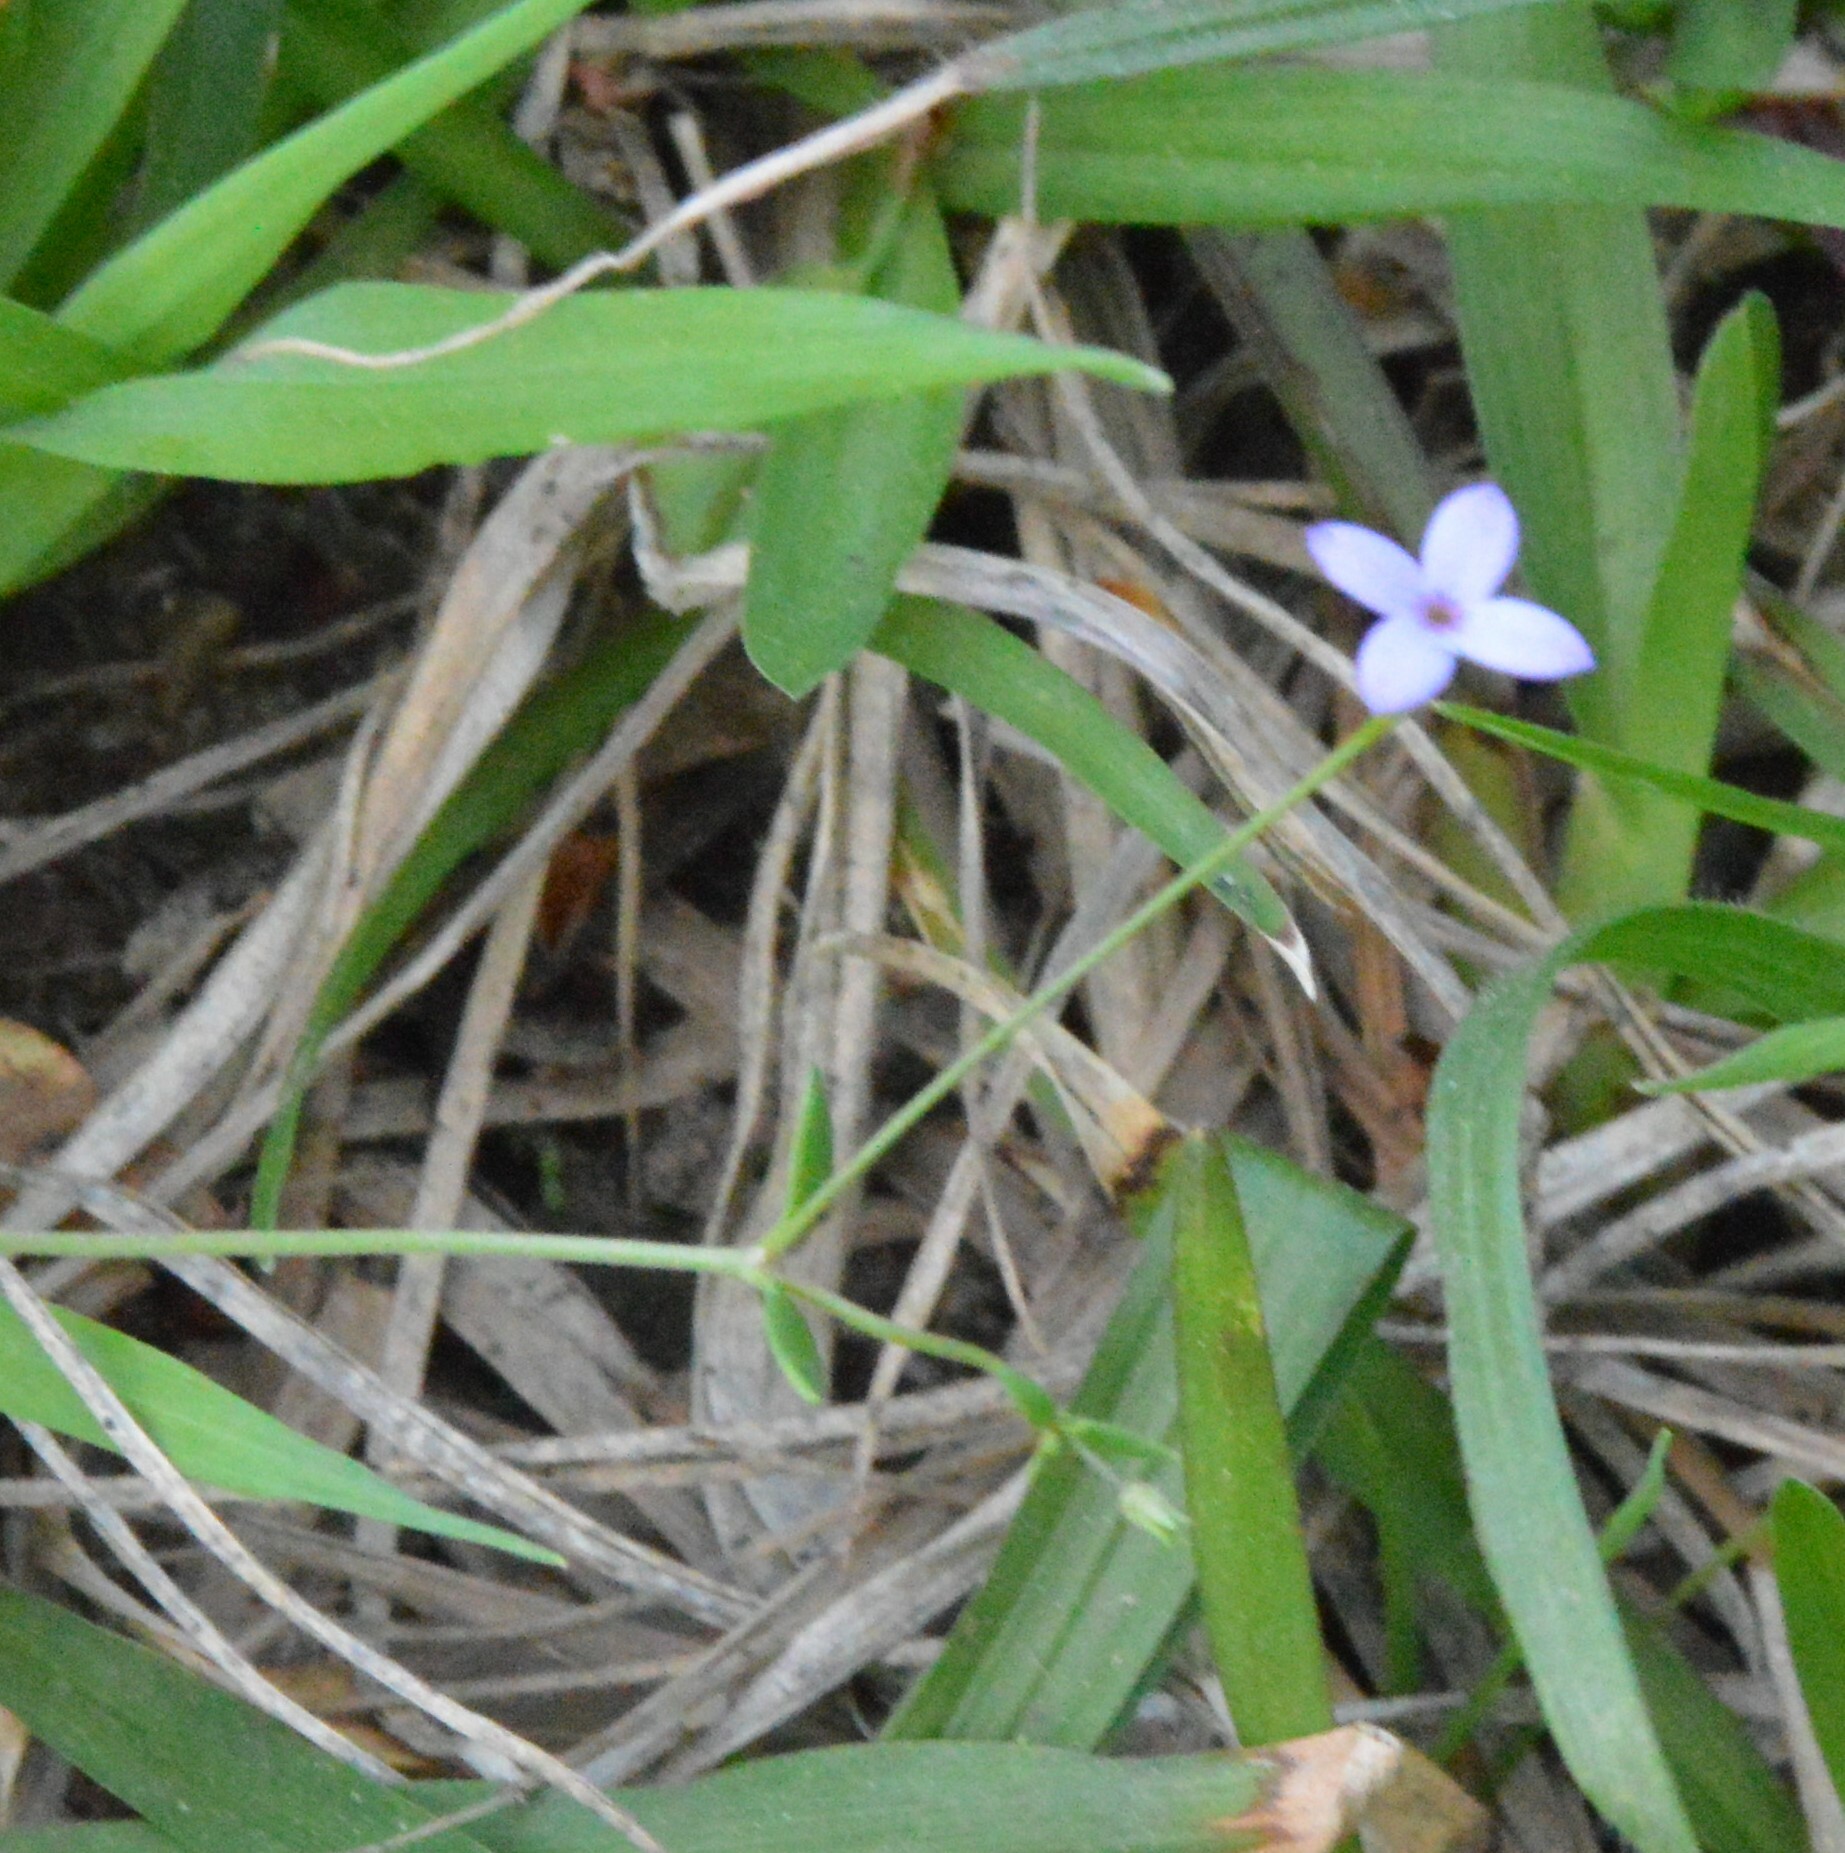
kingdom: Plantae
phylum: Tracheophyta
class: Magnoliopsida
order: Gentianales
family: Rubiaceae
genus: Houstonia
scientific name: Houstonia pusilla
